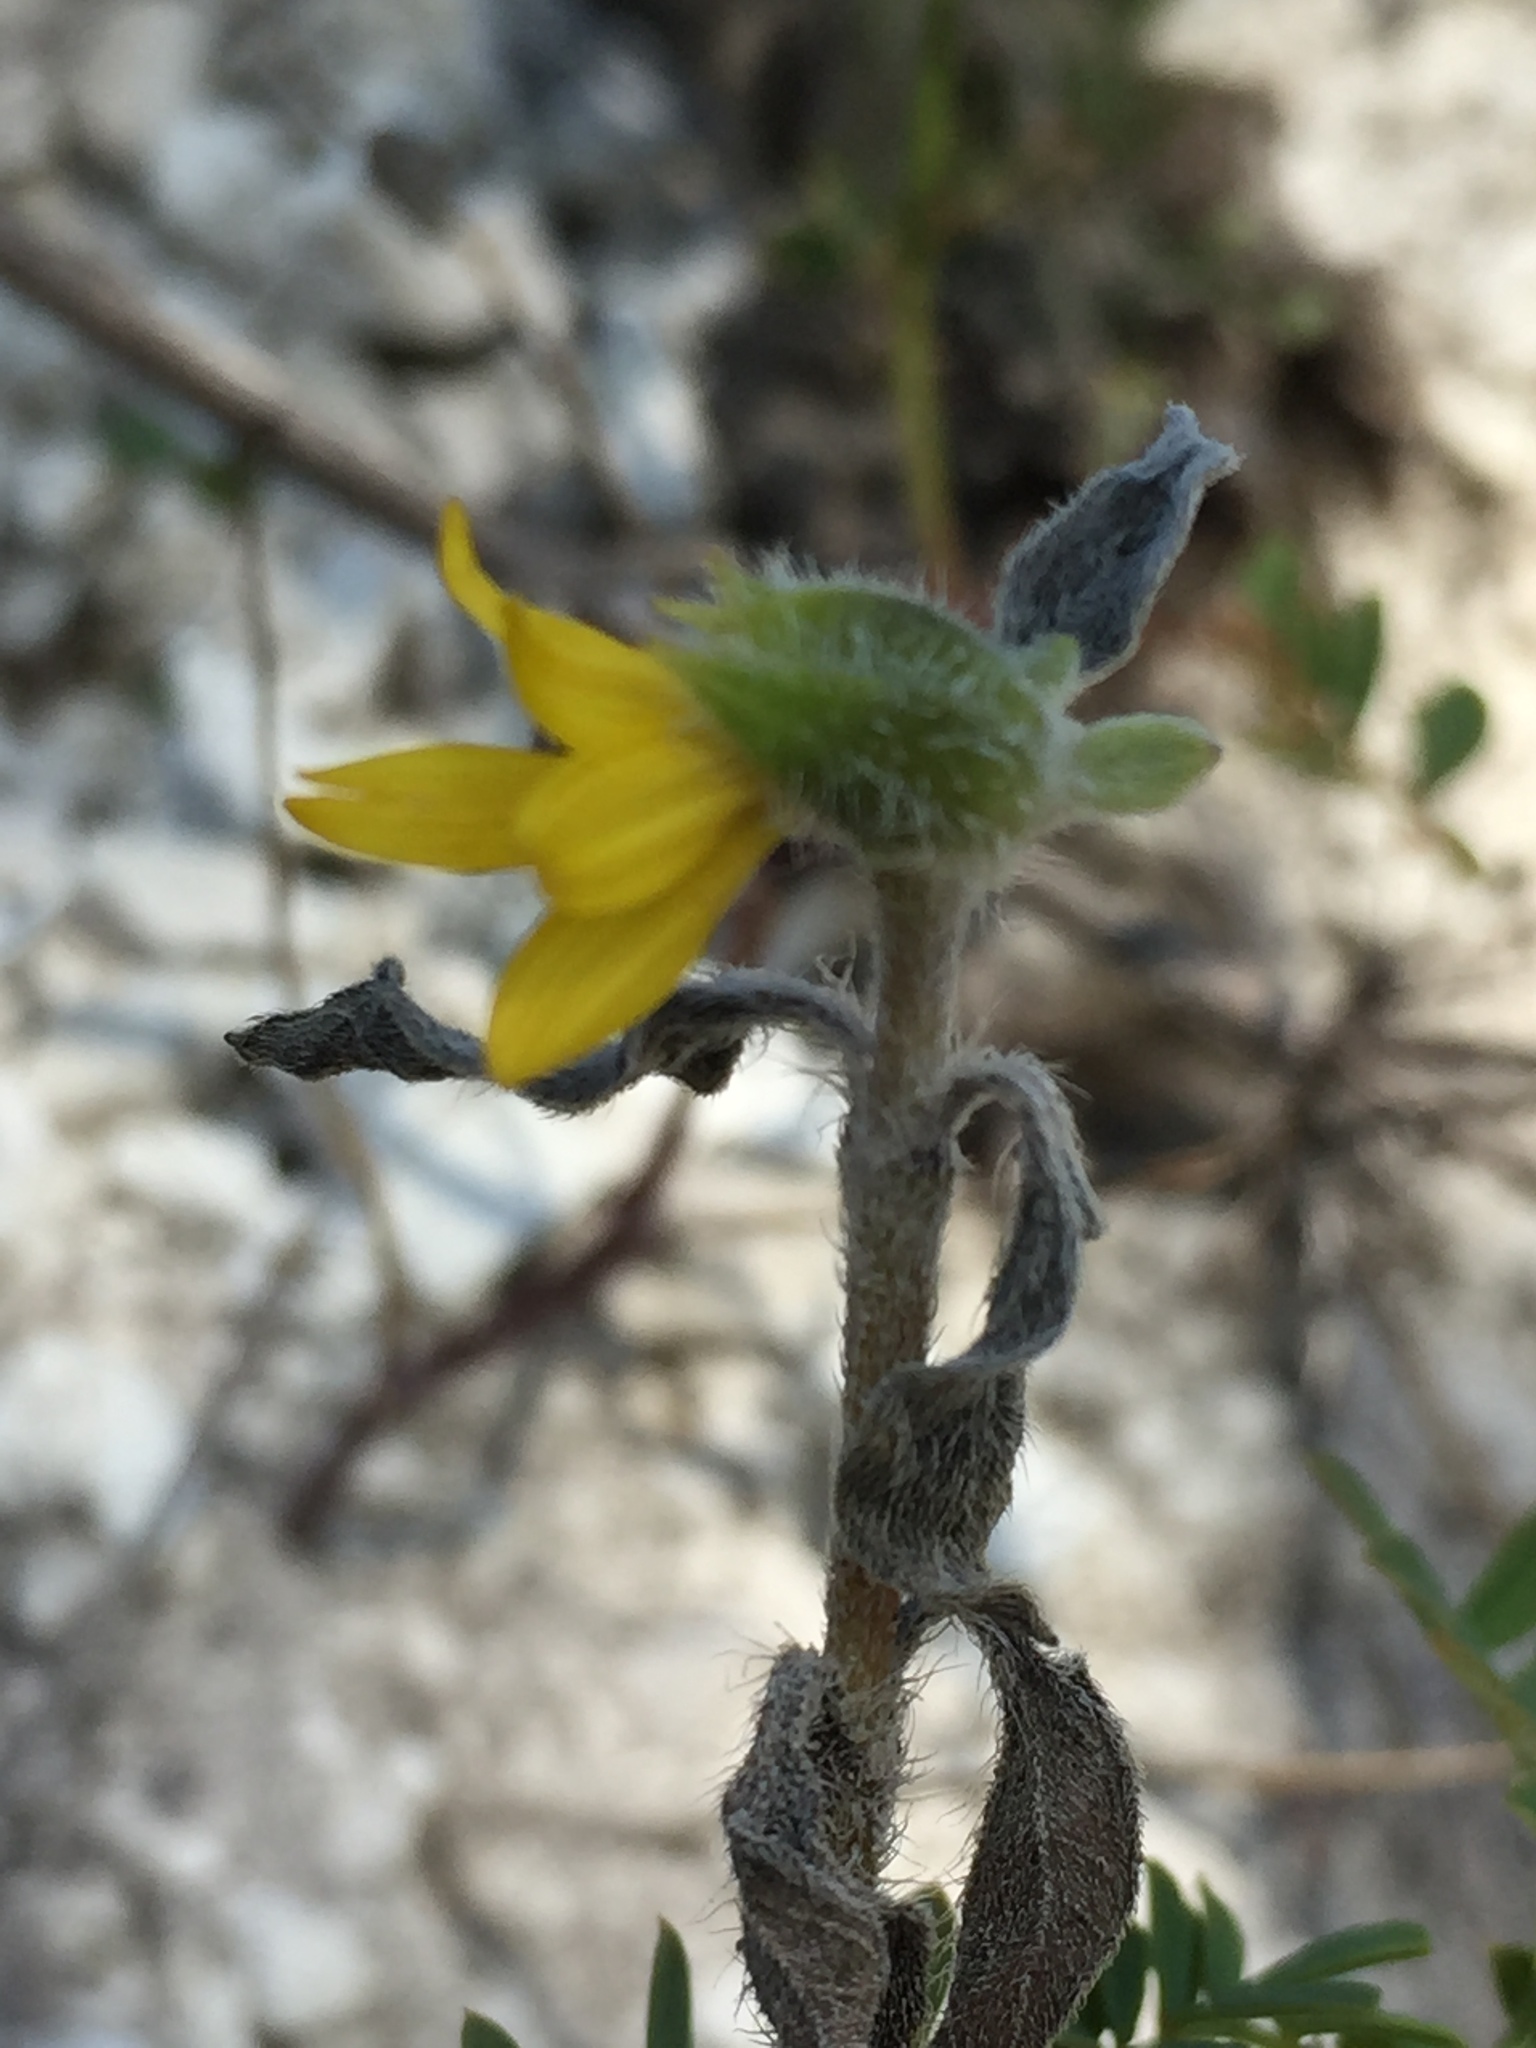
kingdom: Plantae
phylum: Tracheophyta
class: Magnoliopsida
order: Asterales
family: Asteraceae
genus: Helianthus
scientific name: Helianthus annuus
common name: Sunflower
